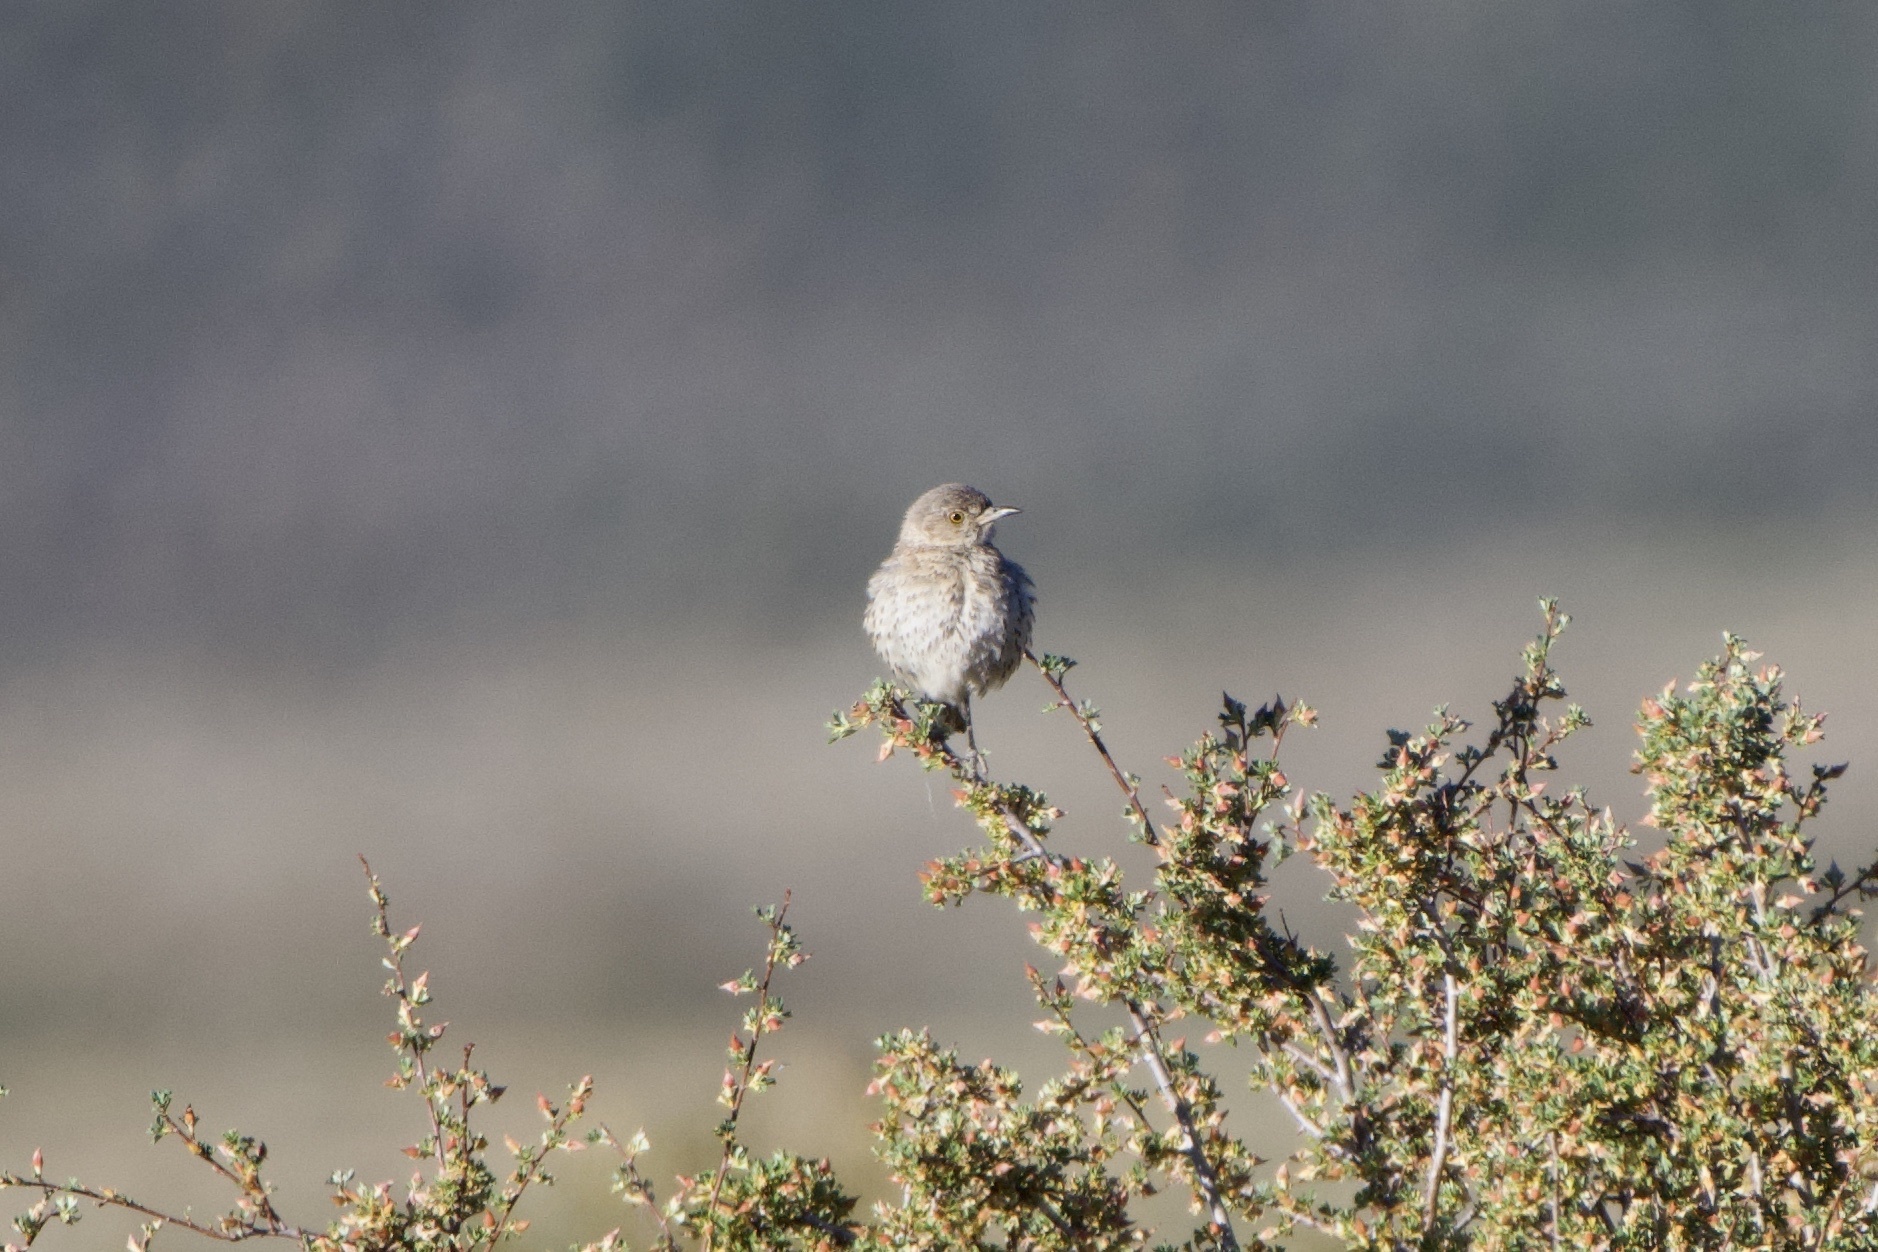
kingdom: Animalia
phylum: Chordata
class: Aves
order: Passeriformes
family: Mimidae
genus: Oreoscoptes
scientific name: Oreoscoptes montanus
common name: Sage thrasher
